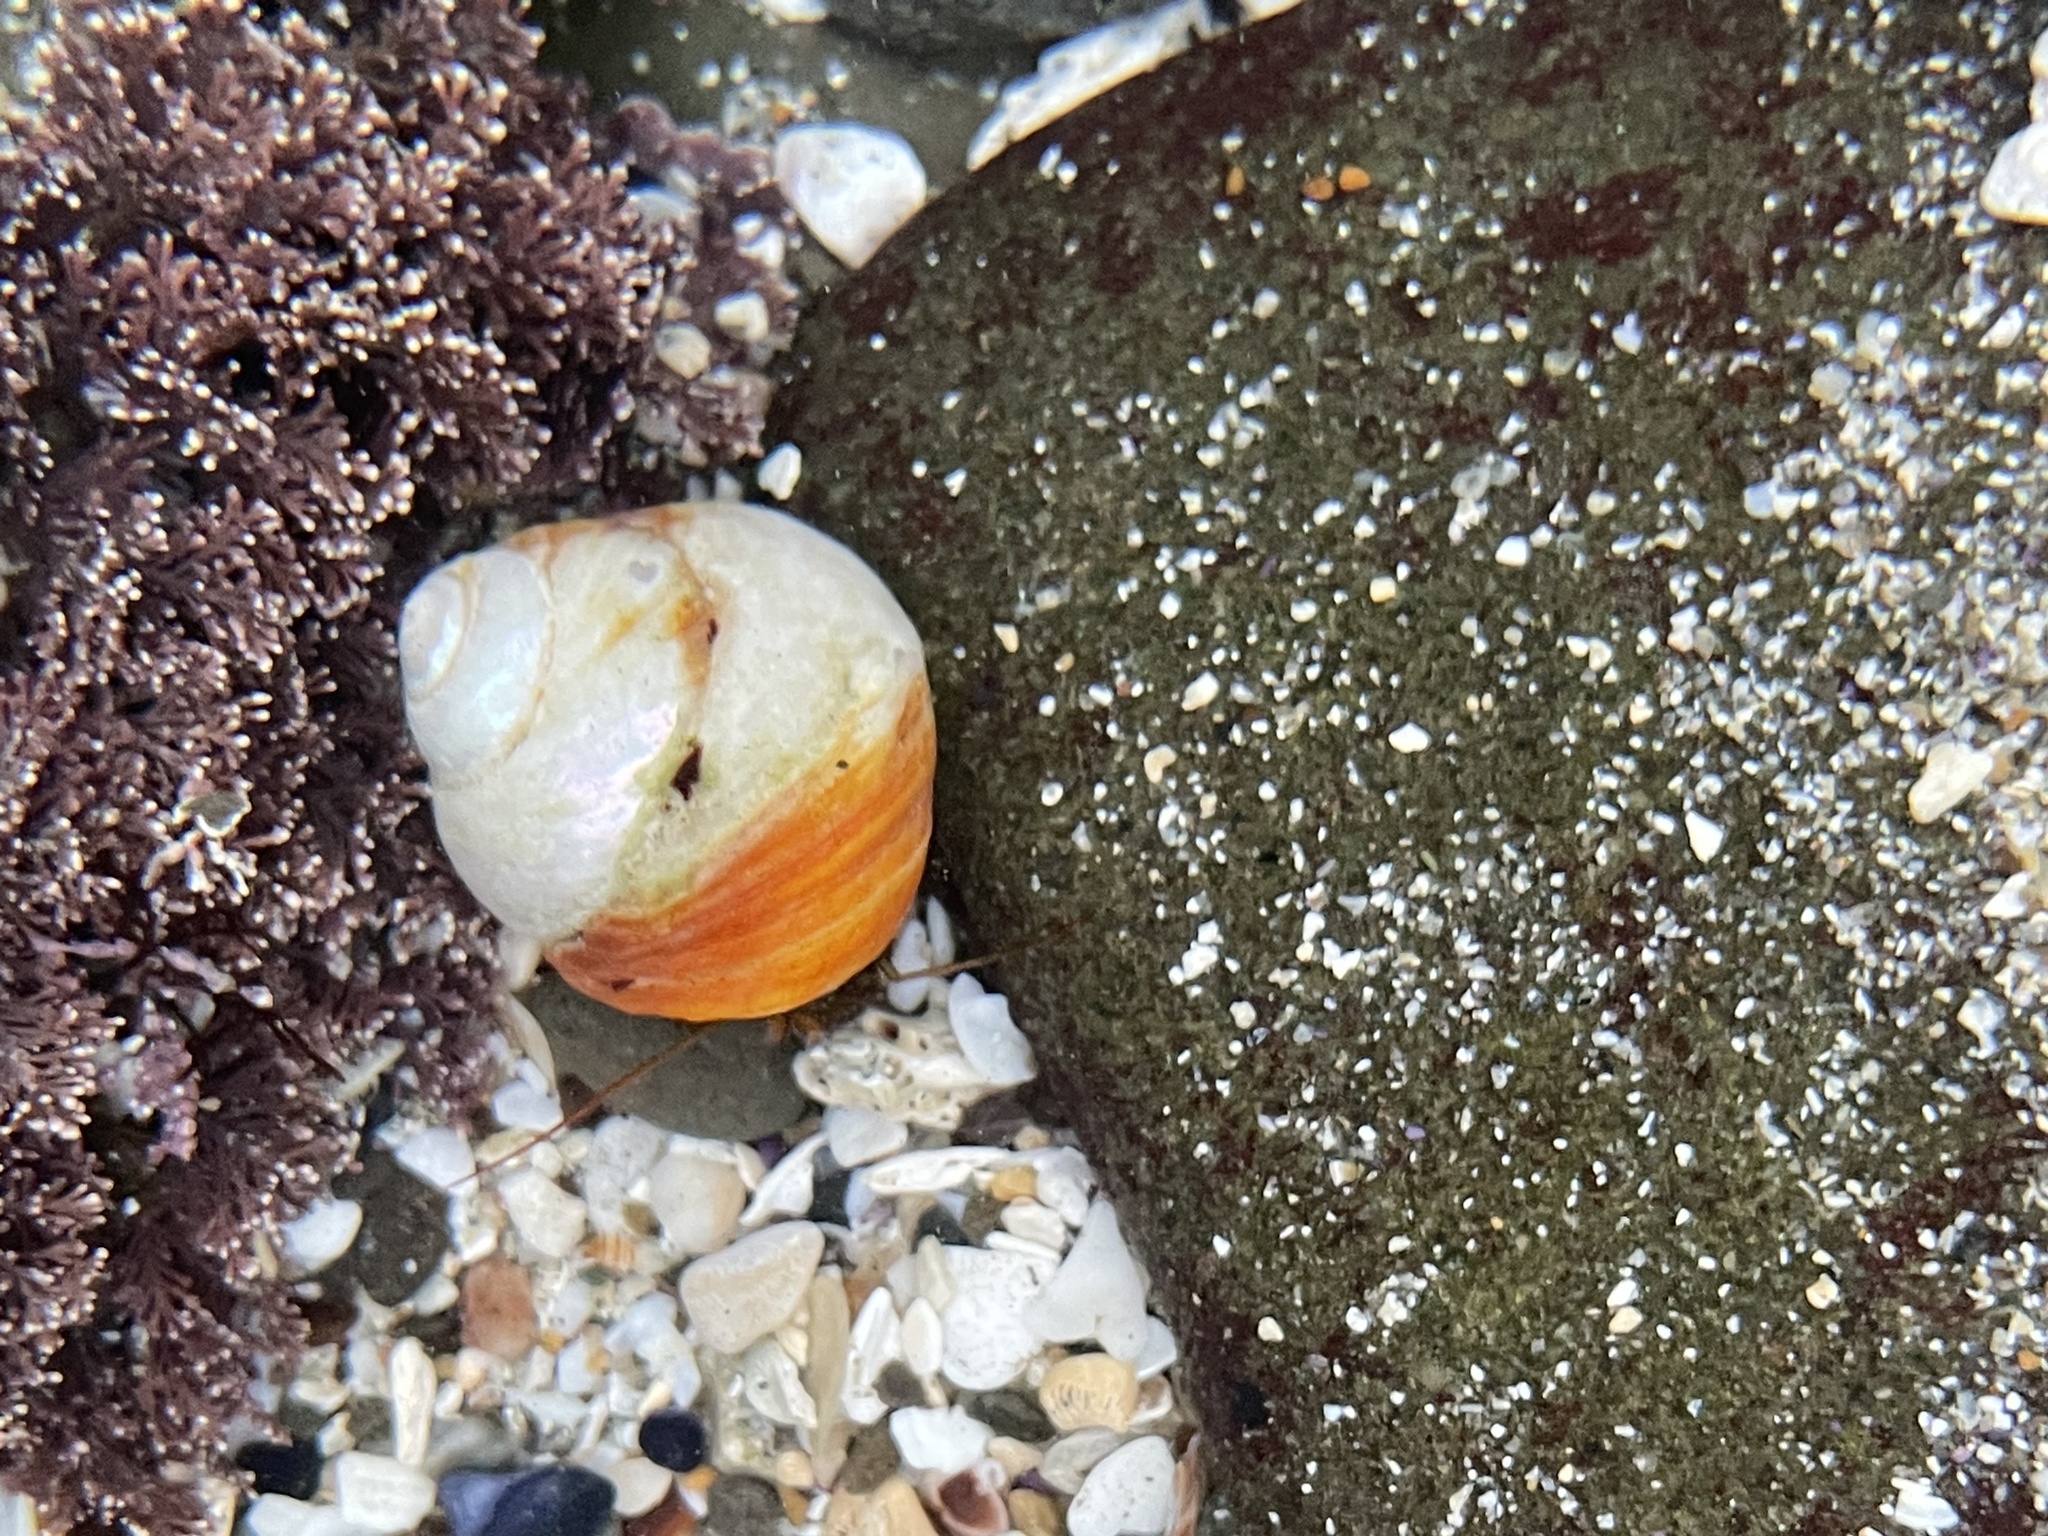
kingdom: Animalia
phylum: Mollusca
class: Gastropoda
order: Trochida
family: Tegulidae
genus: Tegula
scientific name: Tegula brunnea
